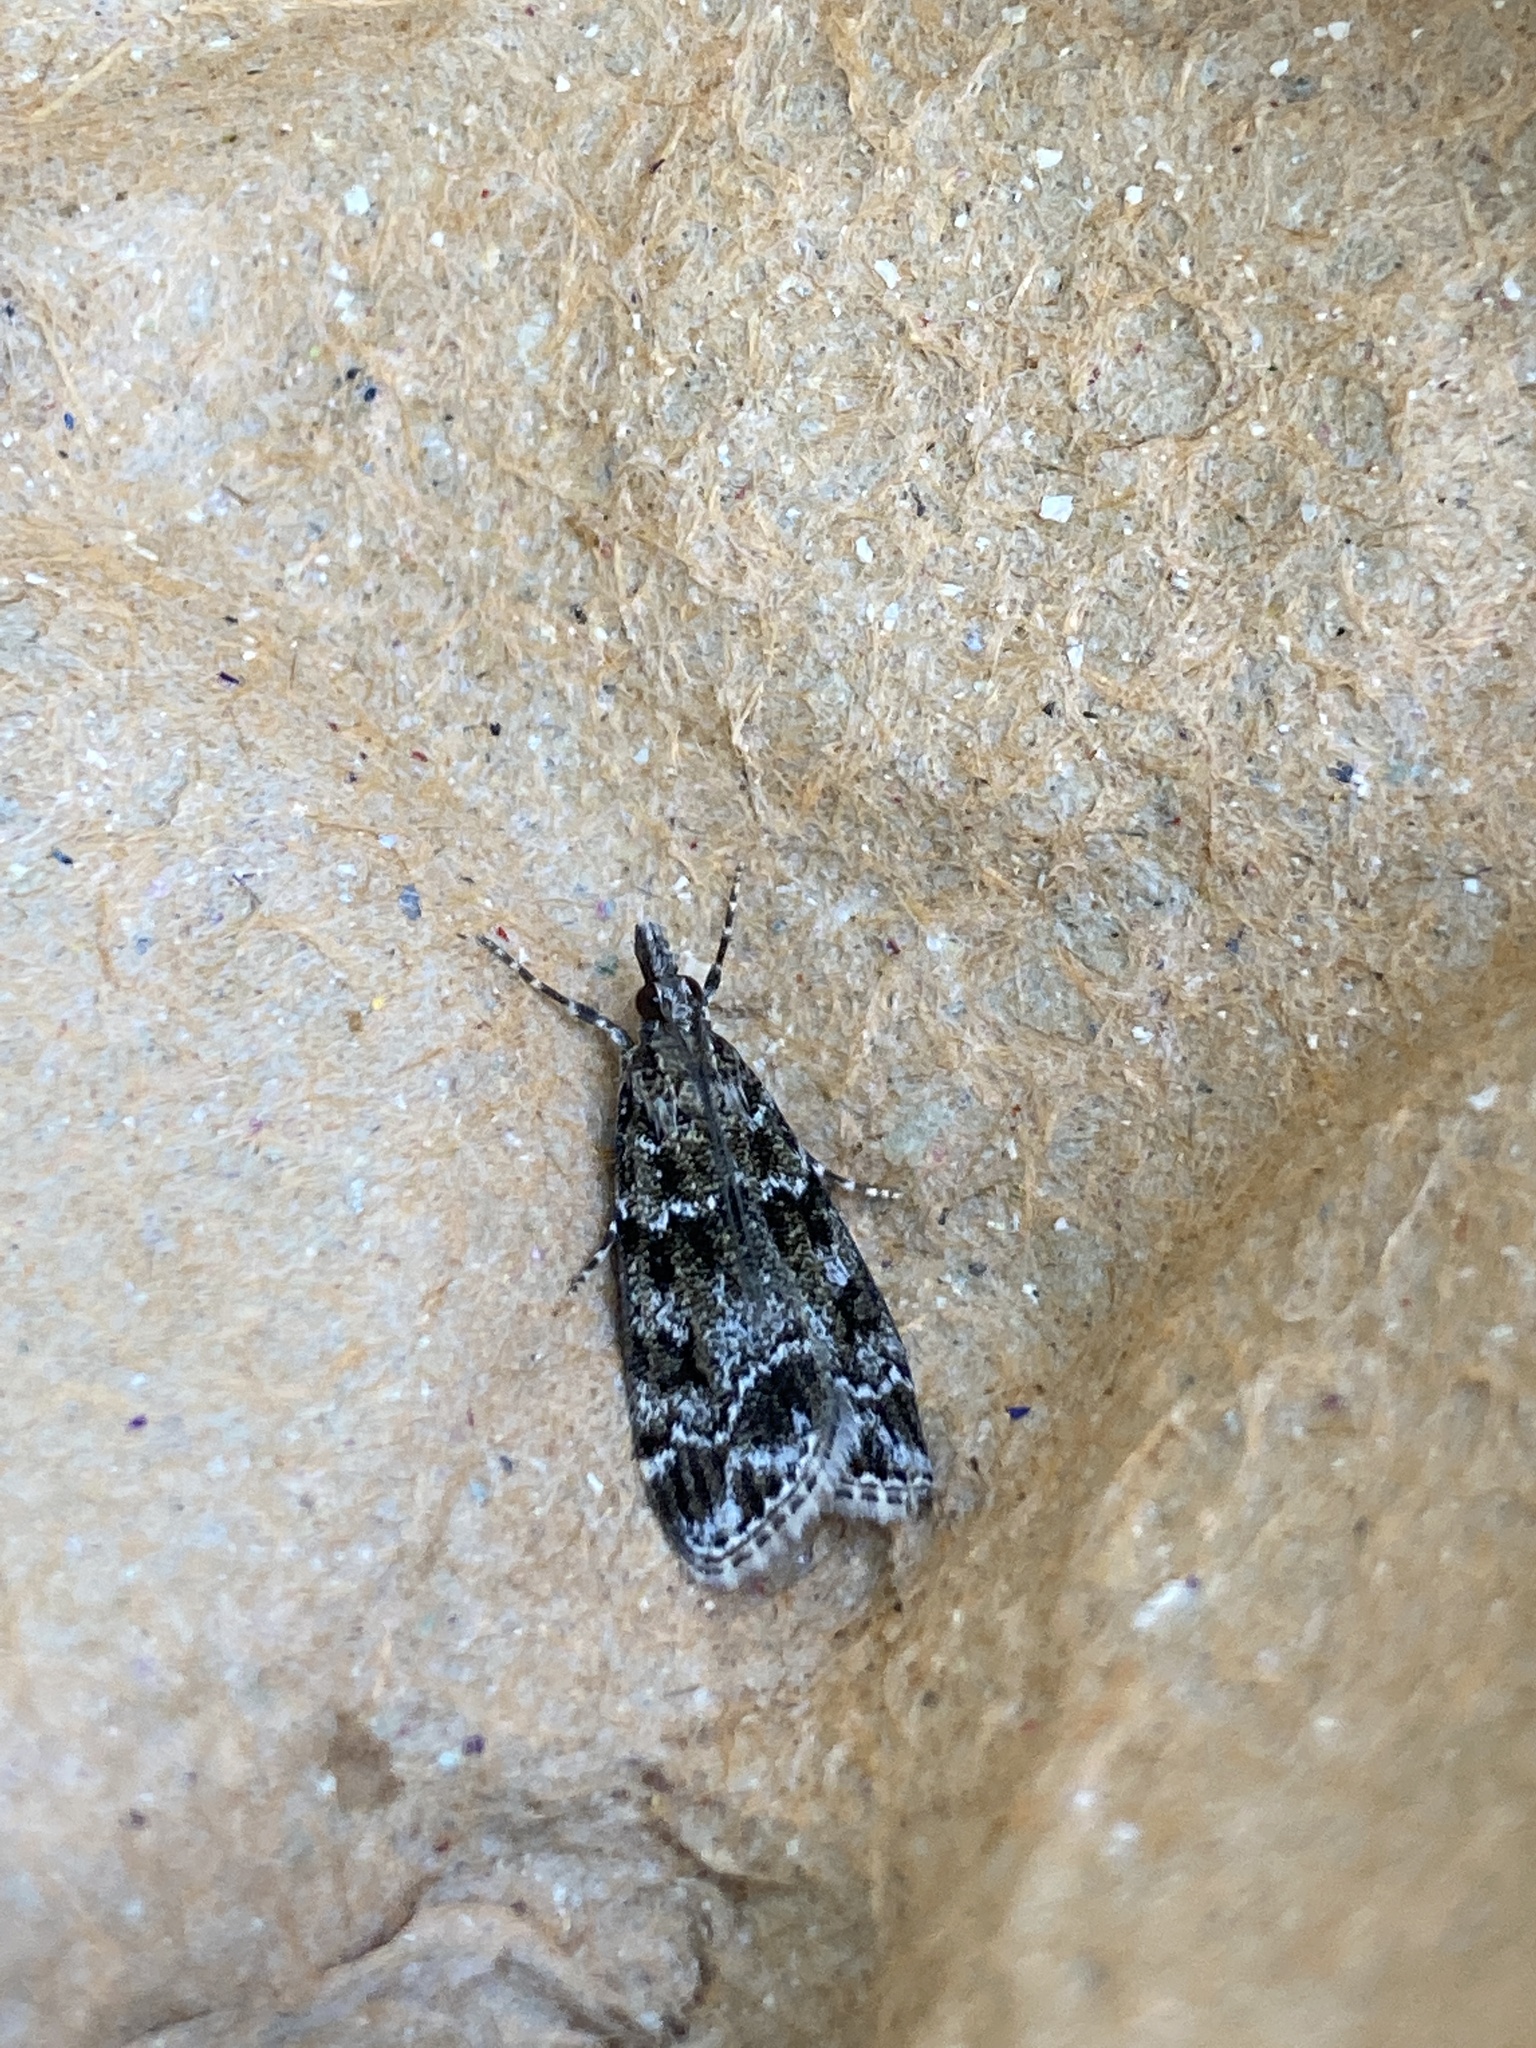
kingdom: Animalia
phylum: Arthropoda
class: Insecta
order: Lepidoptera
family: Crambidae
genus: Eudonia
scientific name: Eudonia mercurella
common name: Small grey
